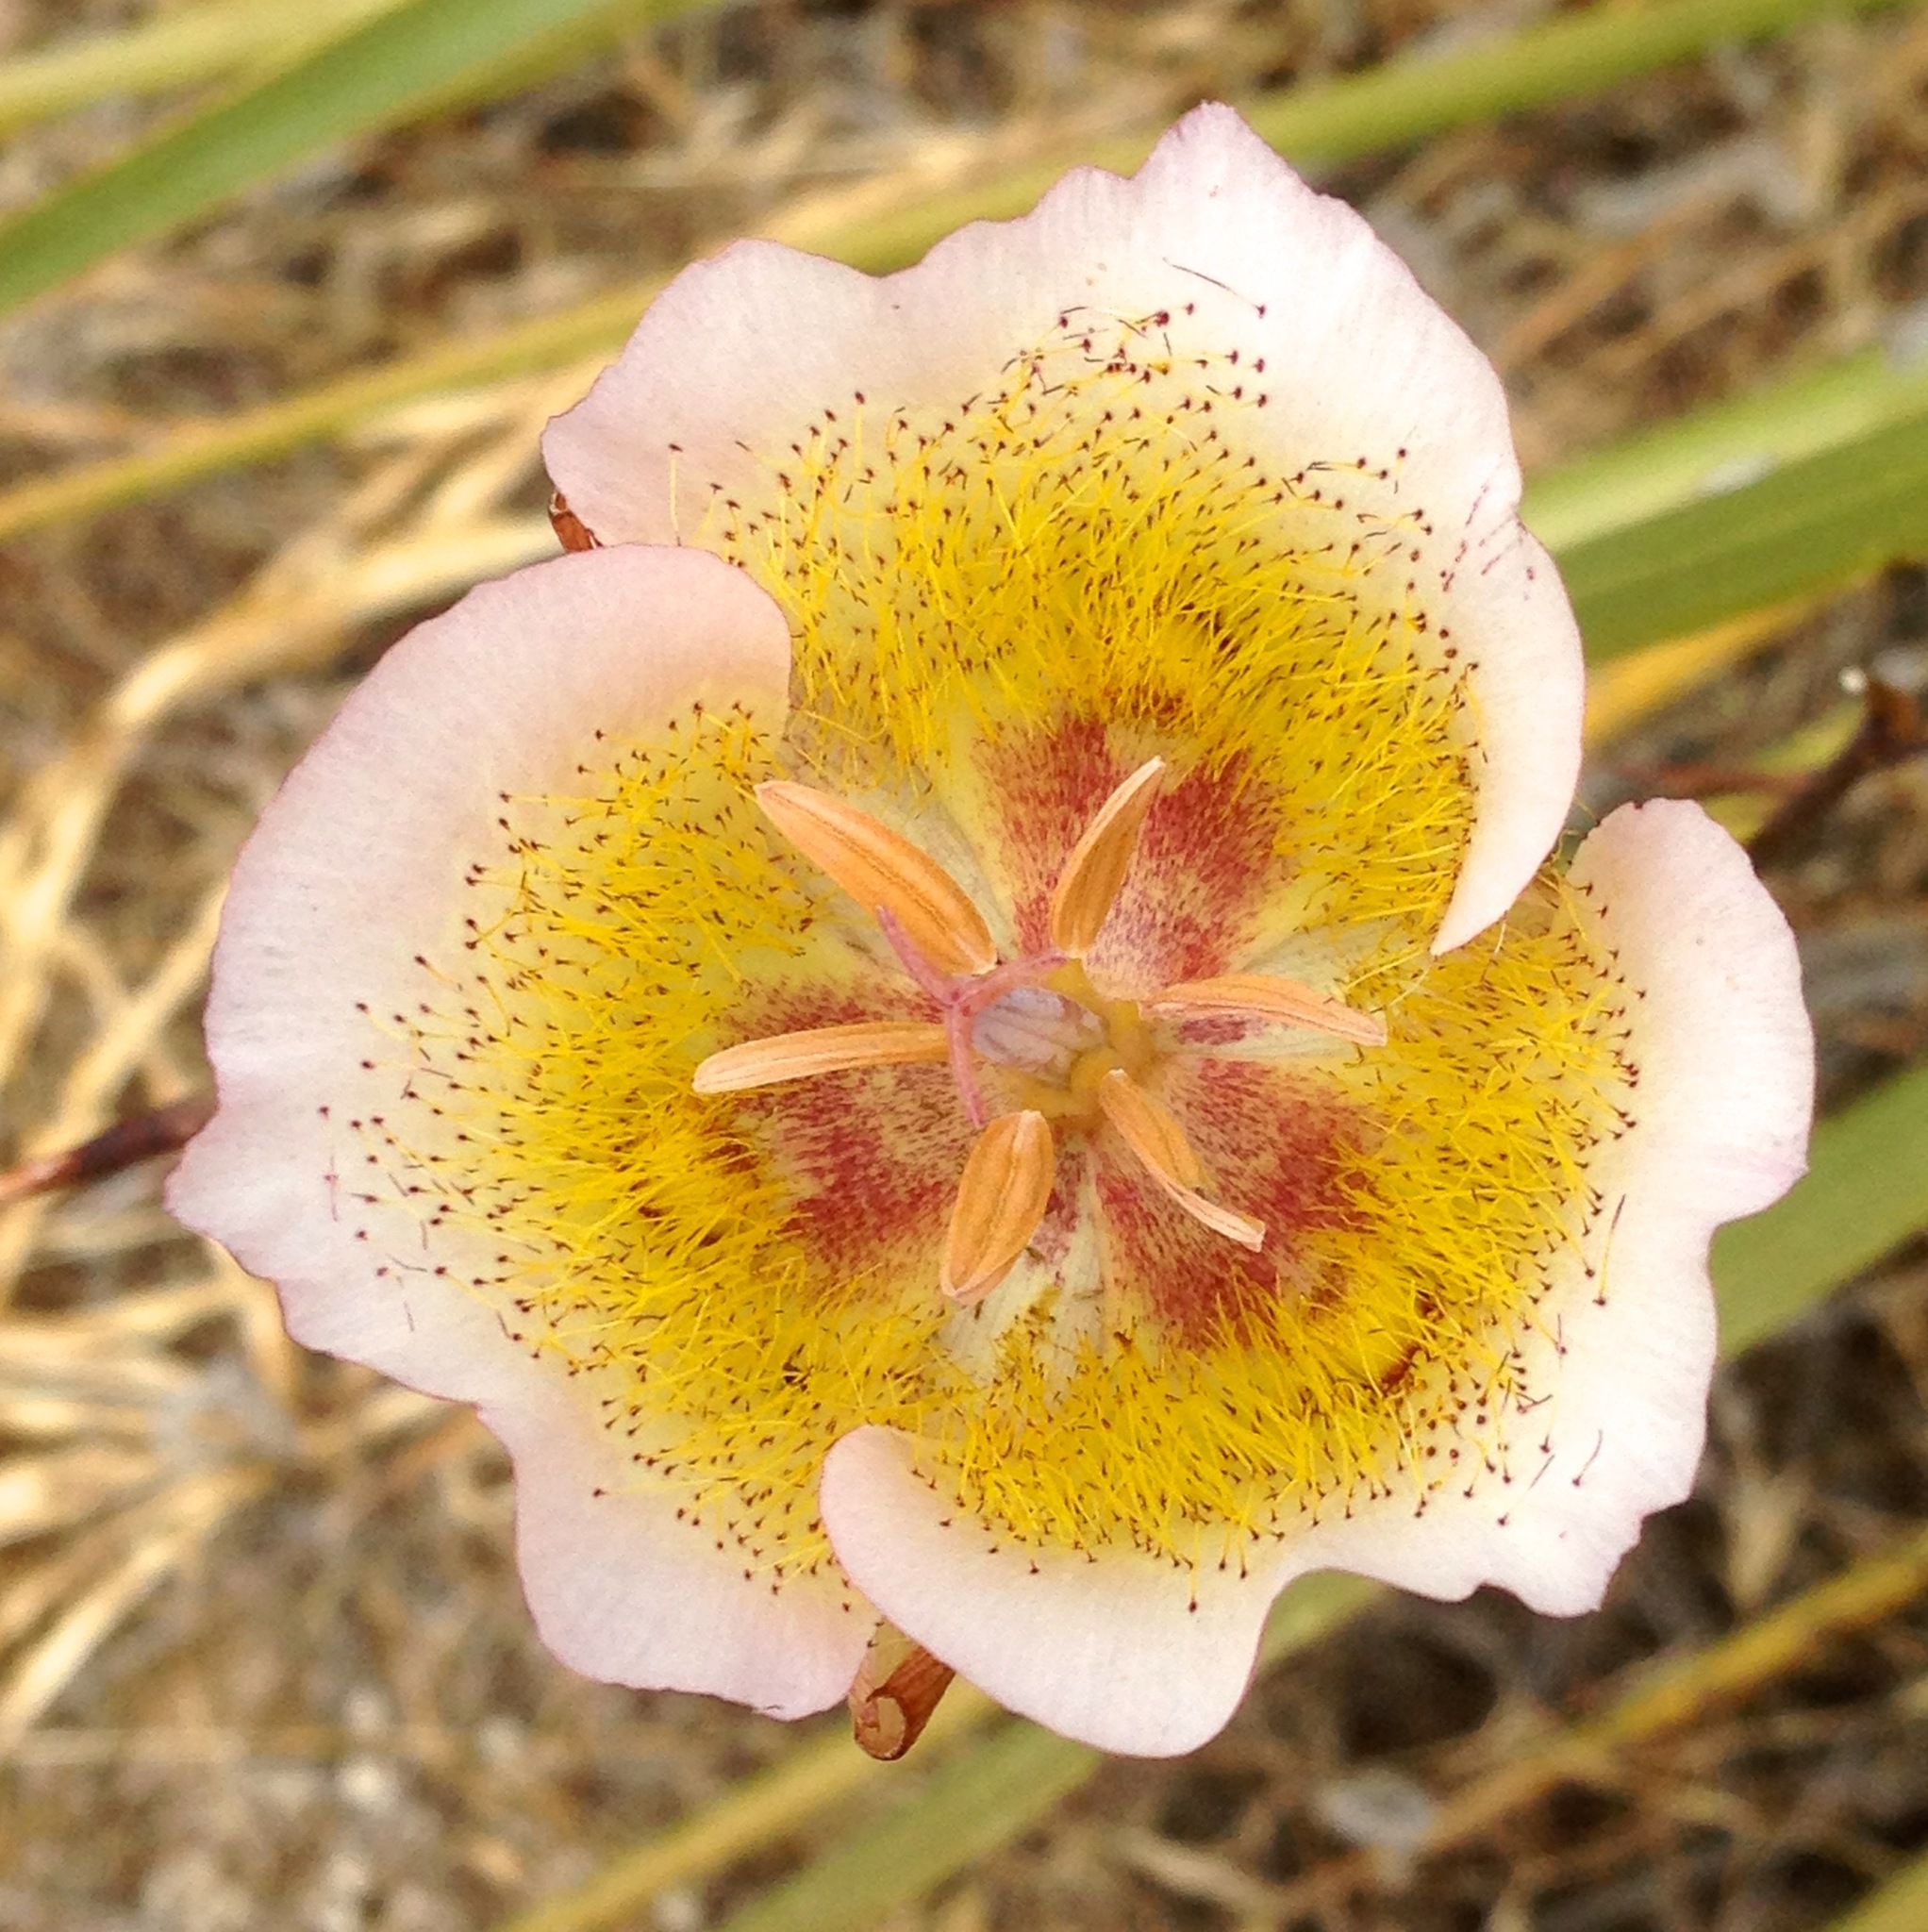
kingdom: Plantae
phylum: Tracheophyta
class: Liliopsida
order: Liliales
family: Liliaceae
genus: Calochortus
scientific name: Calochortus plummerae
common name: Plummer's mariposa-lily
